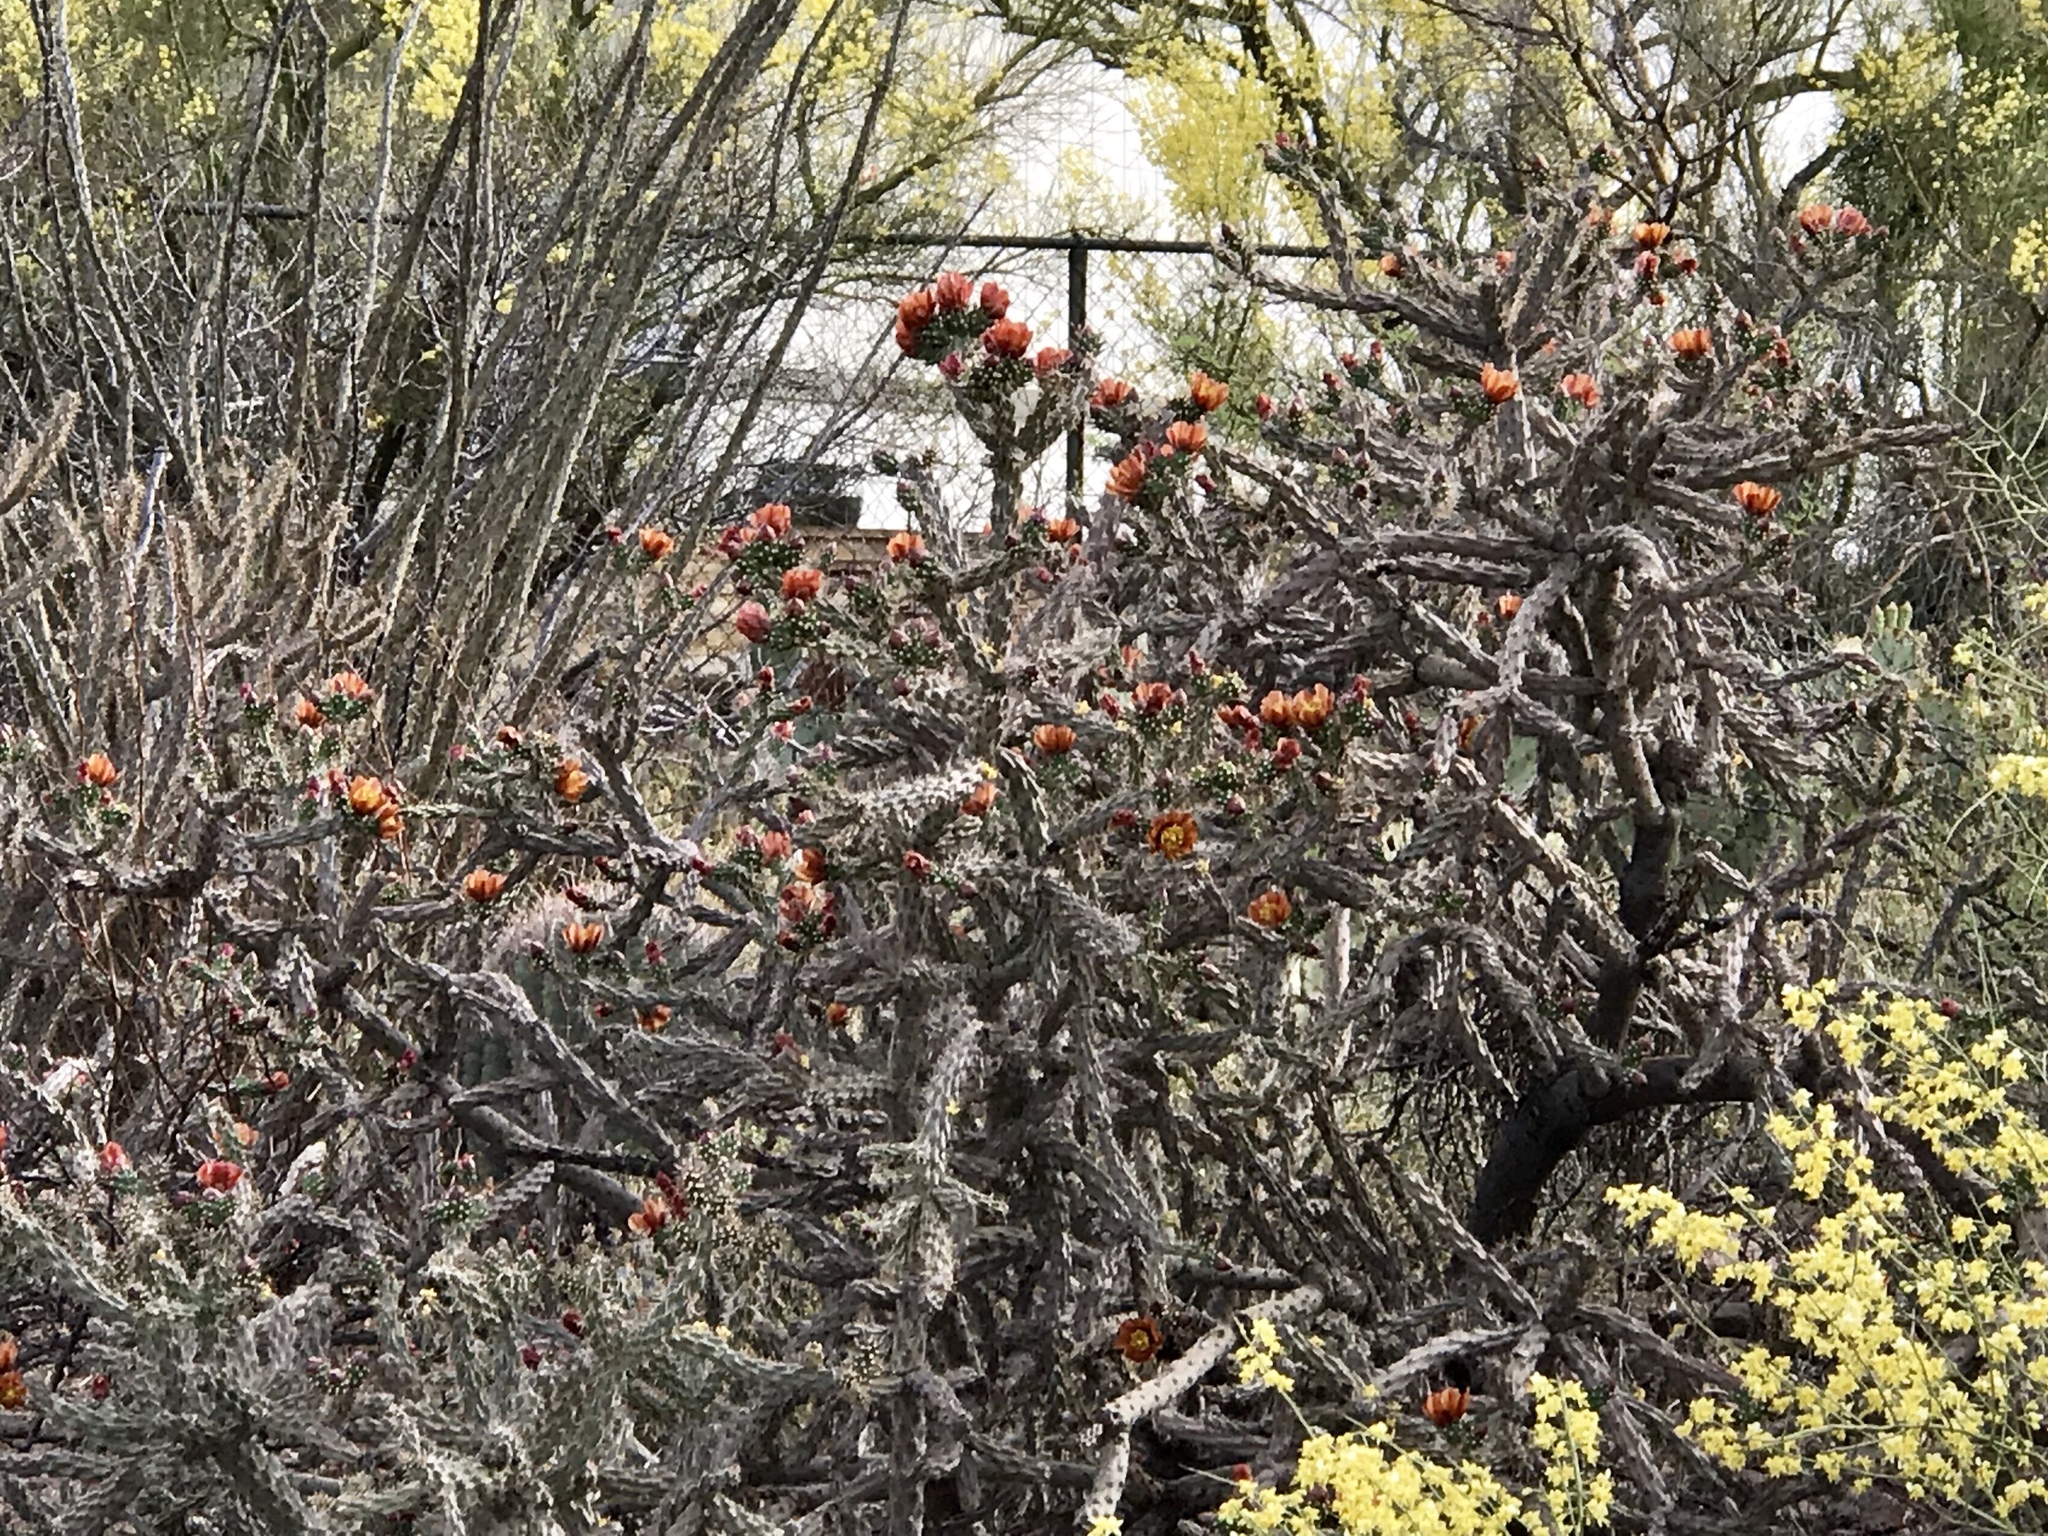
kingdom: Plantae
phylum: Tracheophyta
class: Magnoliopsida
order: Caryophyllales
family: Cactaceae
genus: Cylindropuntia
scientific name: Cylindropuntia thurberi
